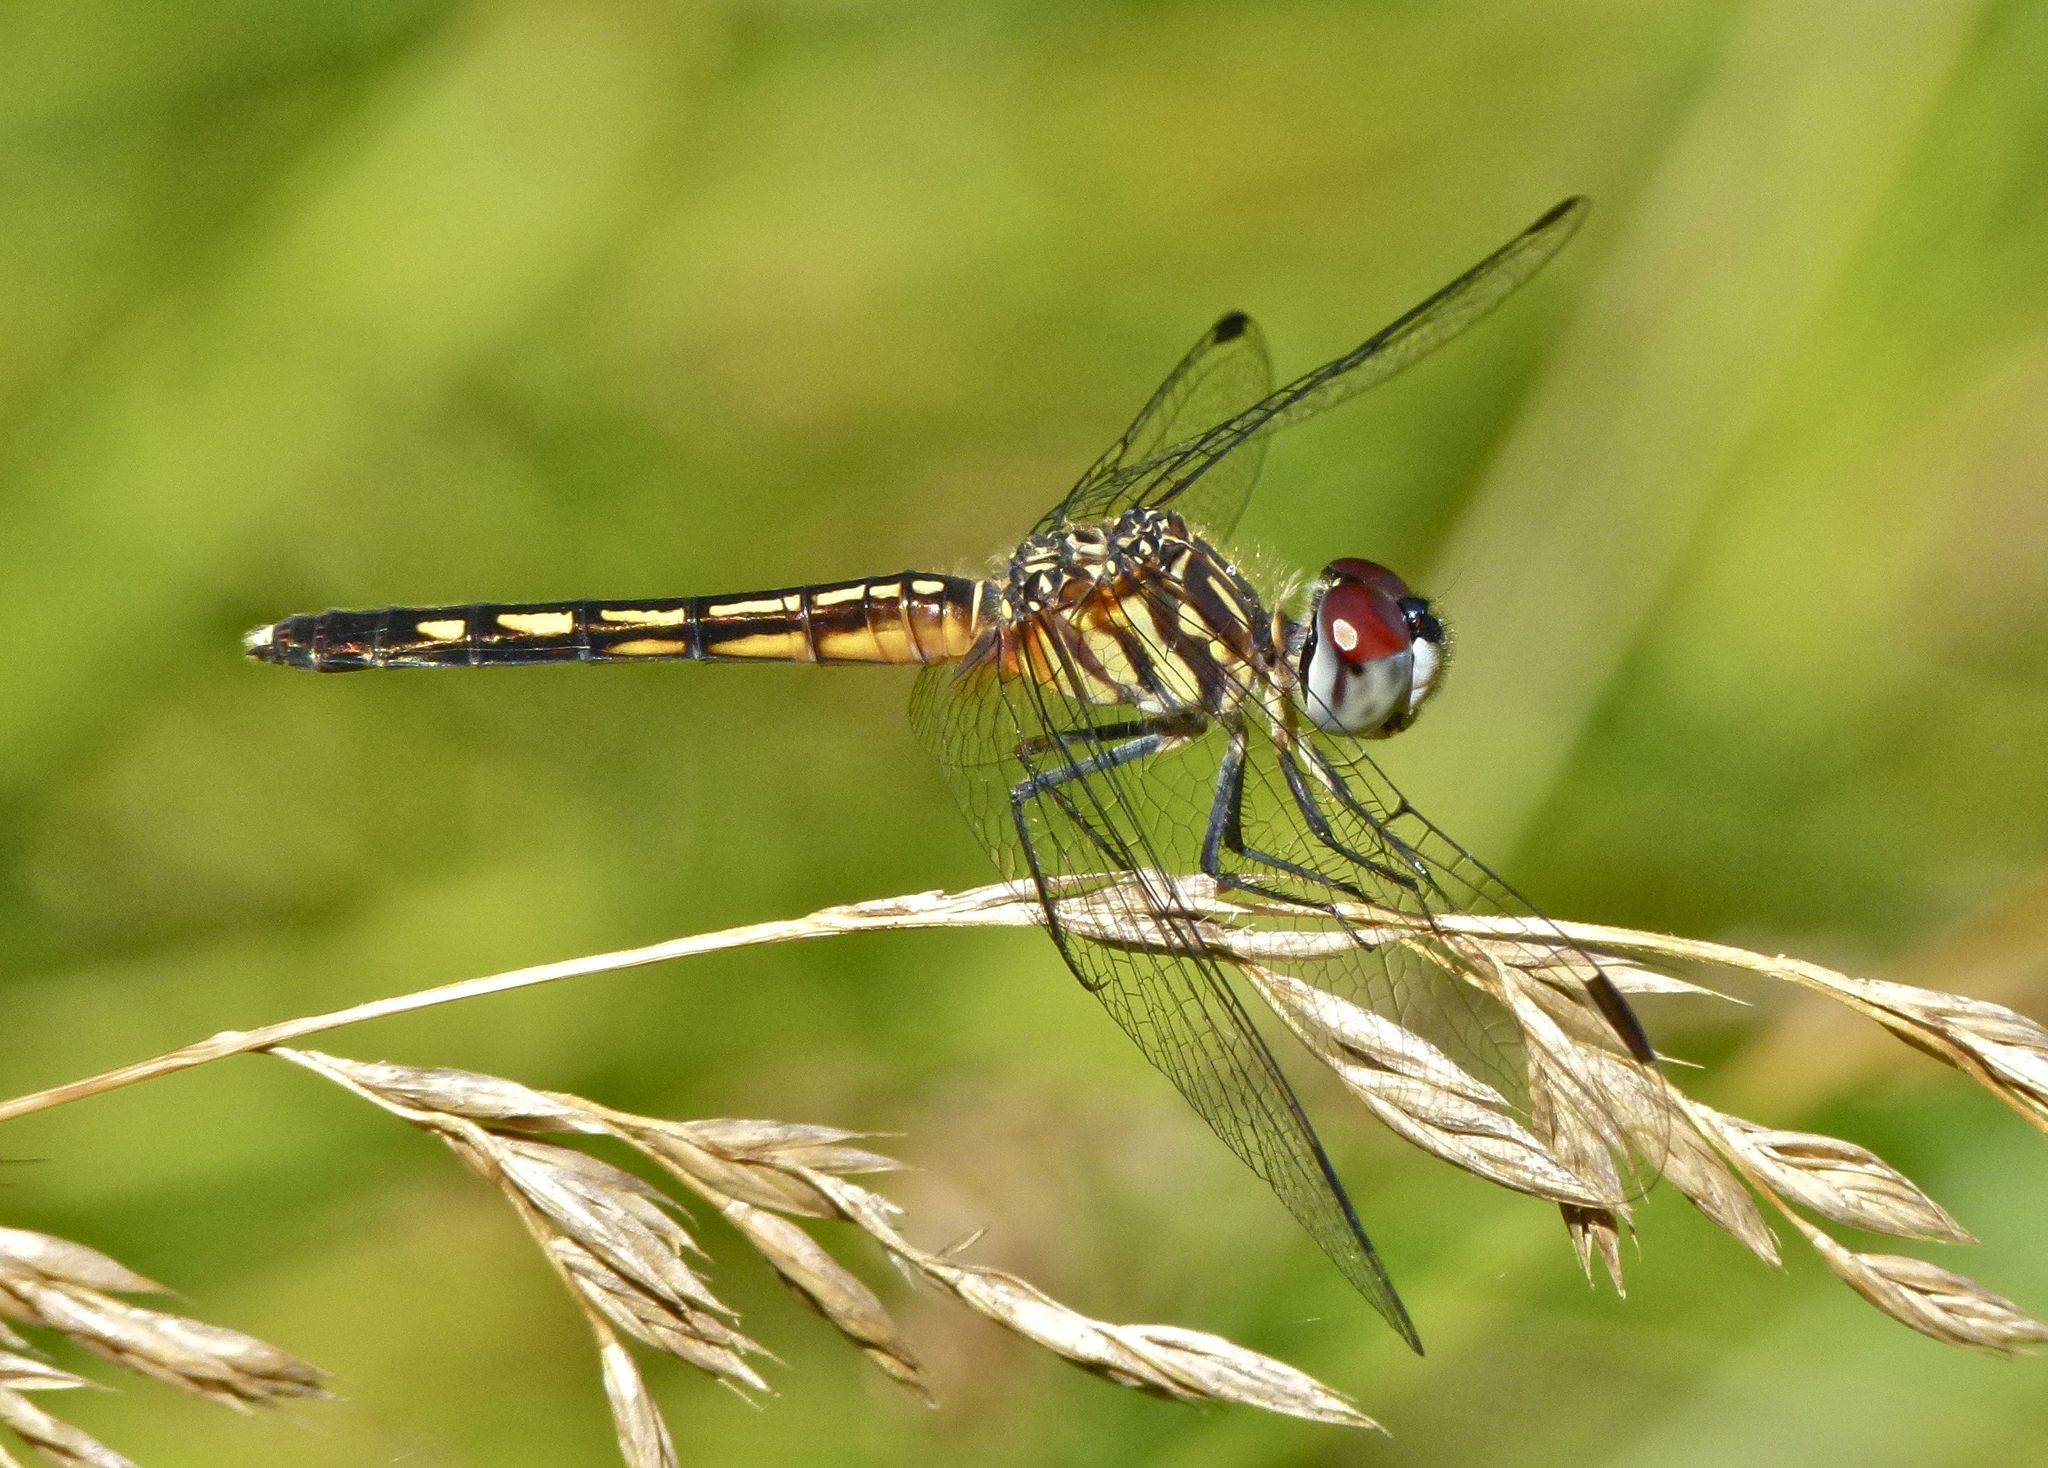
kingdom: Animalia
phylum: Arthropoda
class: Insecta
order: Odonata
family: Libellulidae
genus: Pachydiplax
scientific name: Pachydiplax longipennis
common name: Blue dasher
